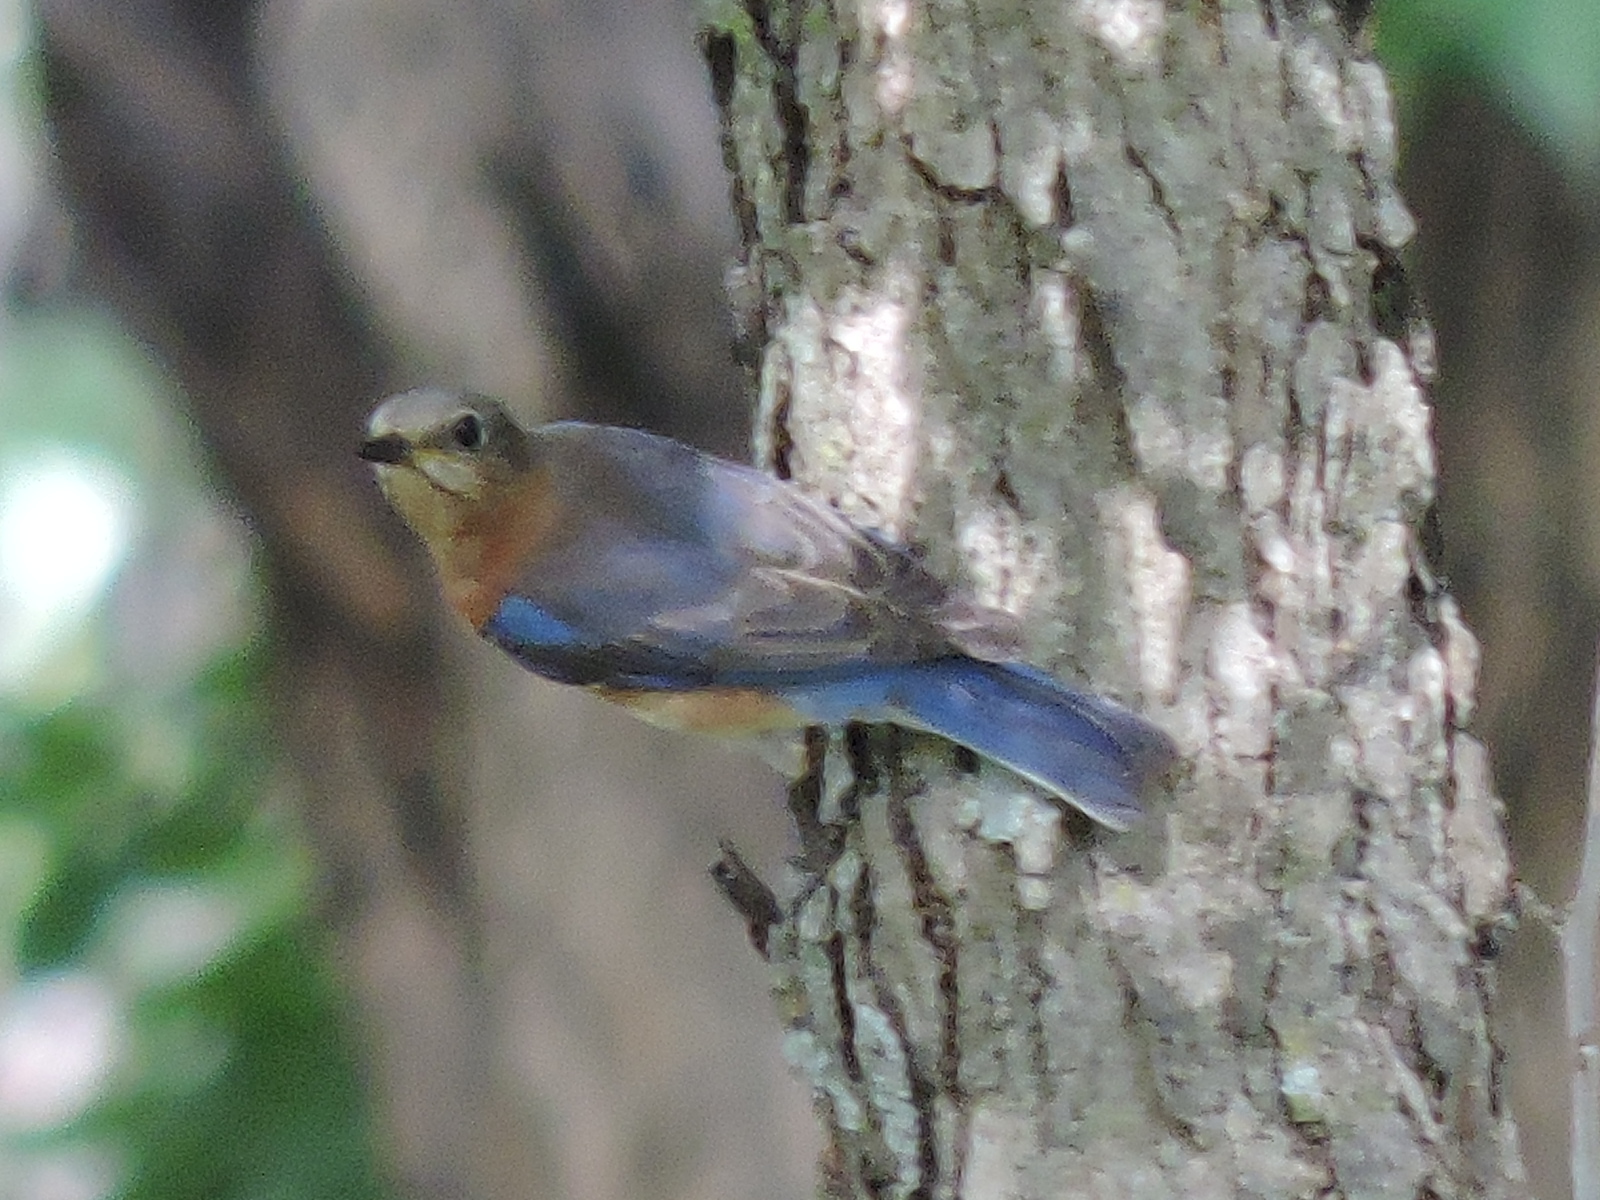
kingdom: Animalia
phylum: Chordata
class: Aves
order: Passeriformes
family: Turdidae
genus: Sialia
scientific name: Sialia sialis
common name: Eastern bluebird
